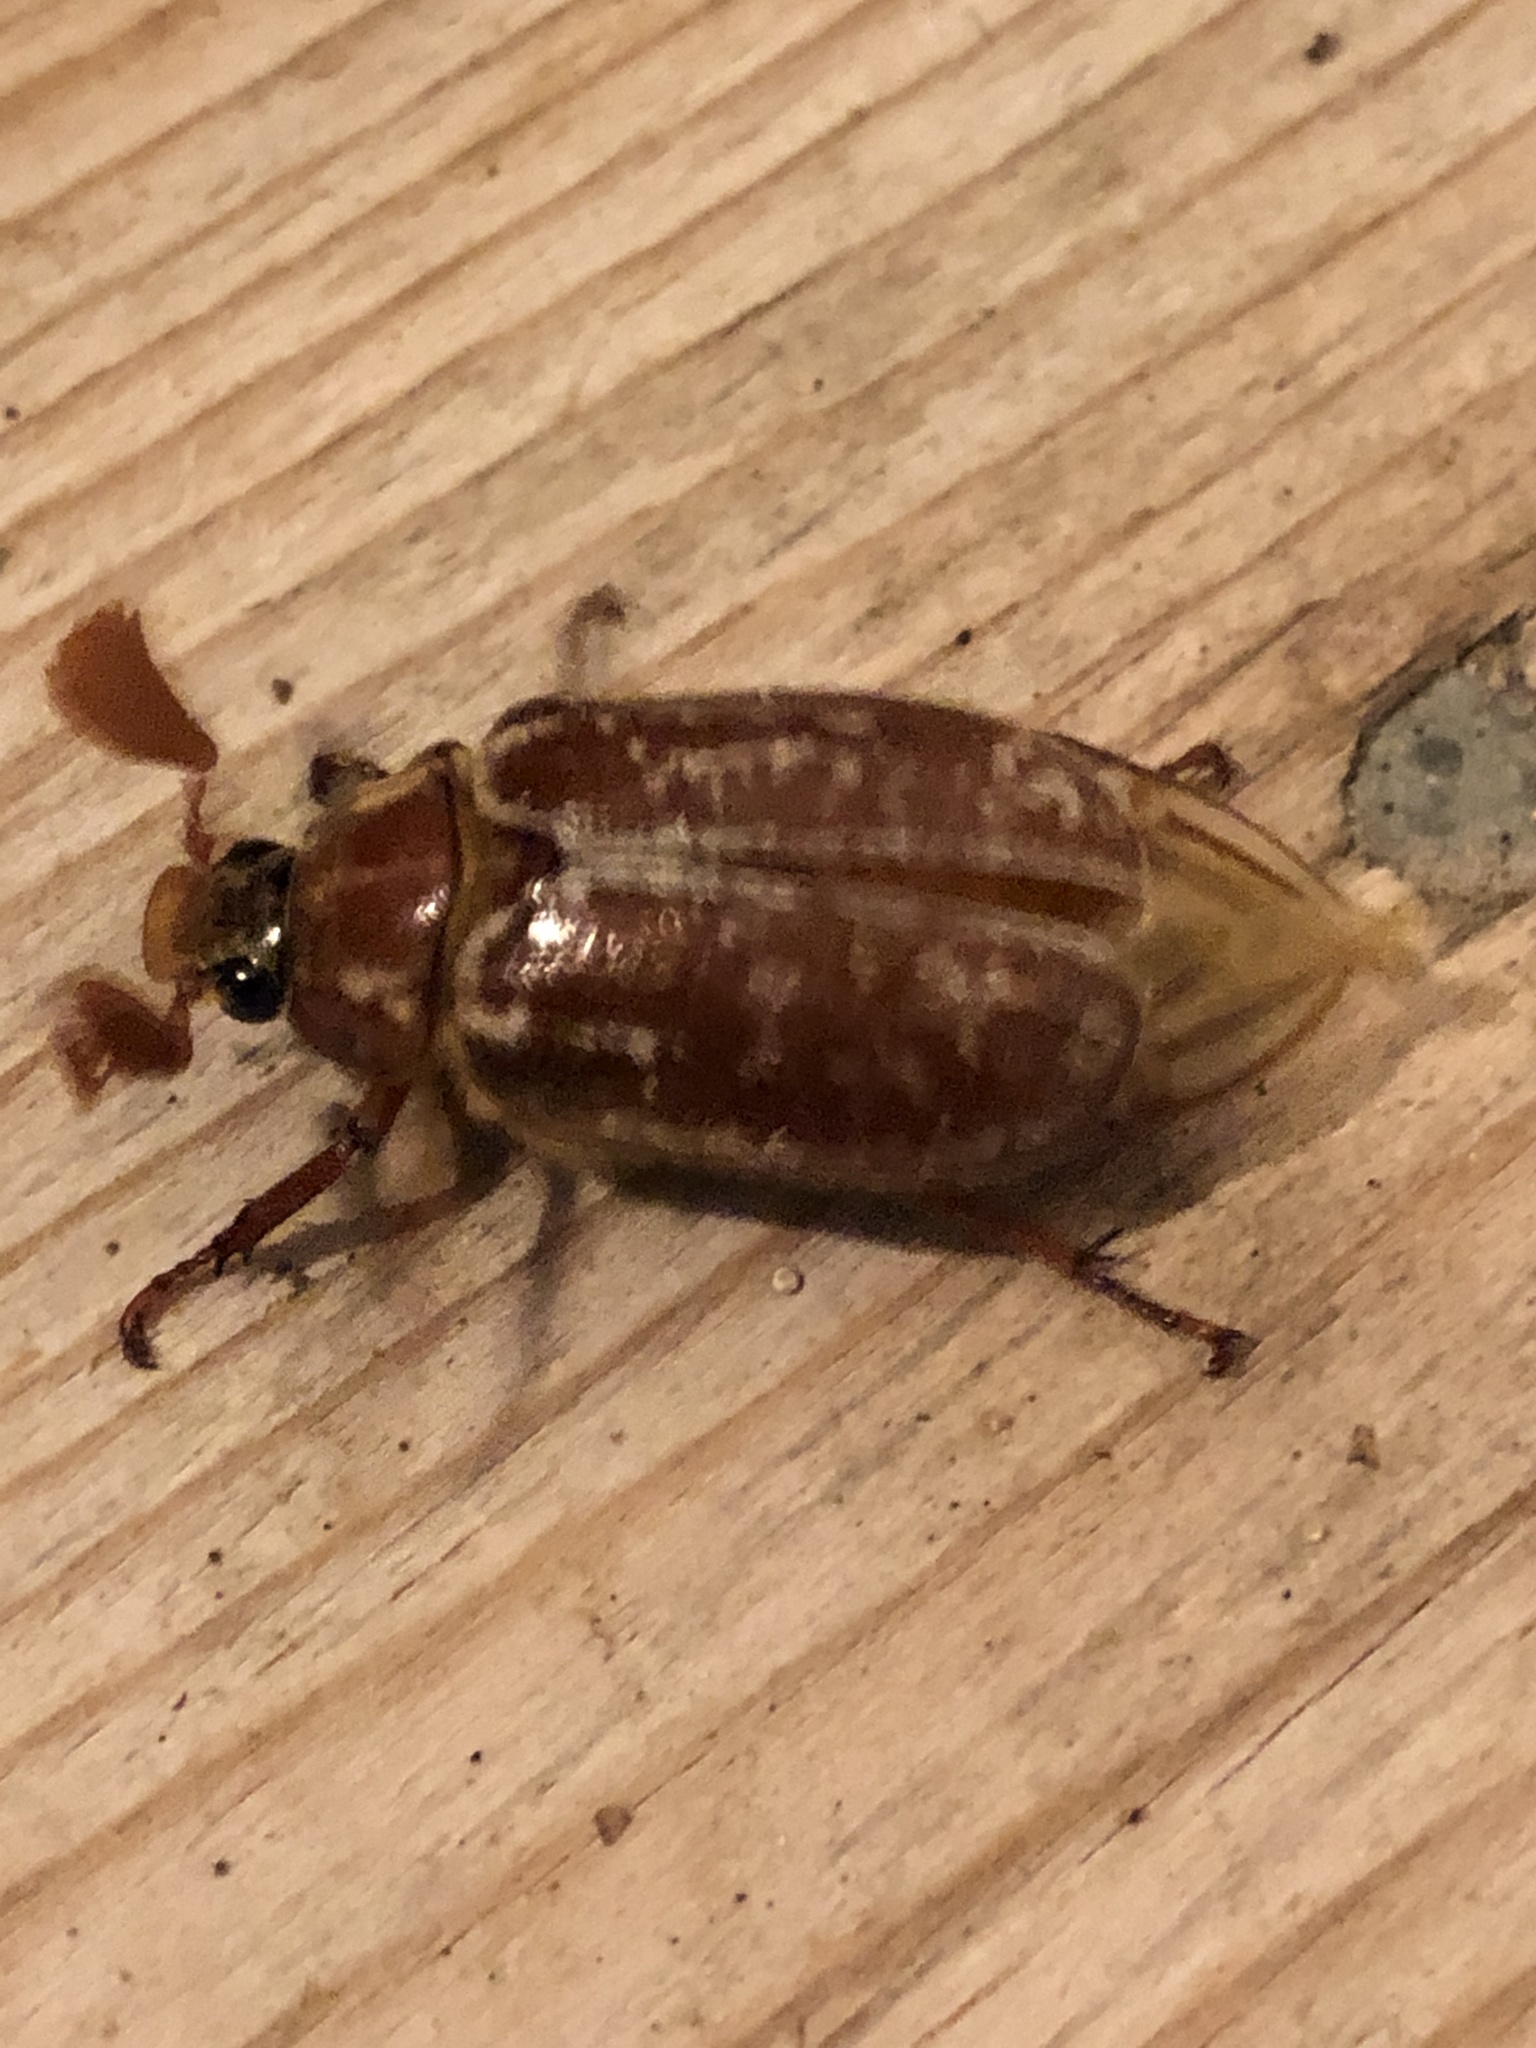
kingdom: Animalia
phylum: Arthropoda
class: Insecta
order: Coleoptera
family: Scarabaeidae
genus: Polyphylla
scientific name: Polyphylla variolosa
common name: Variegated june beetle
